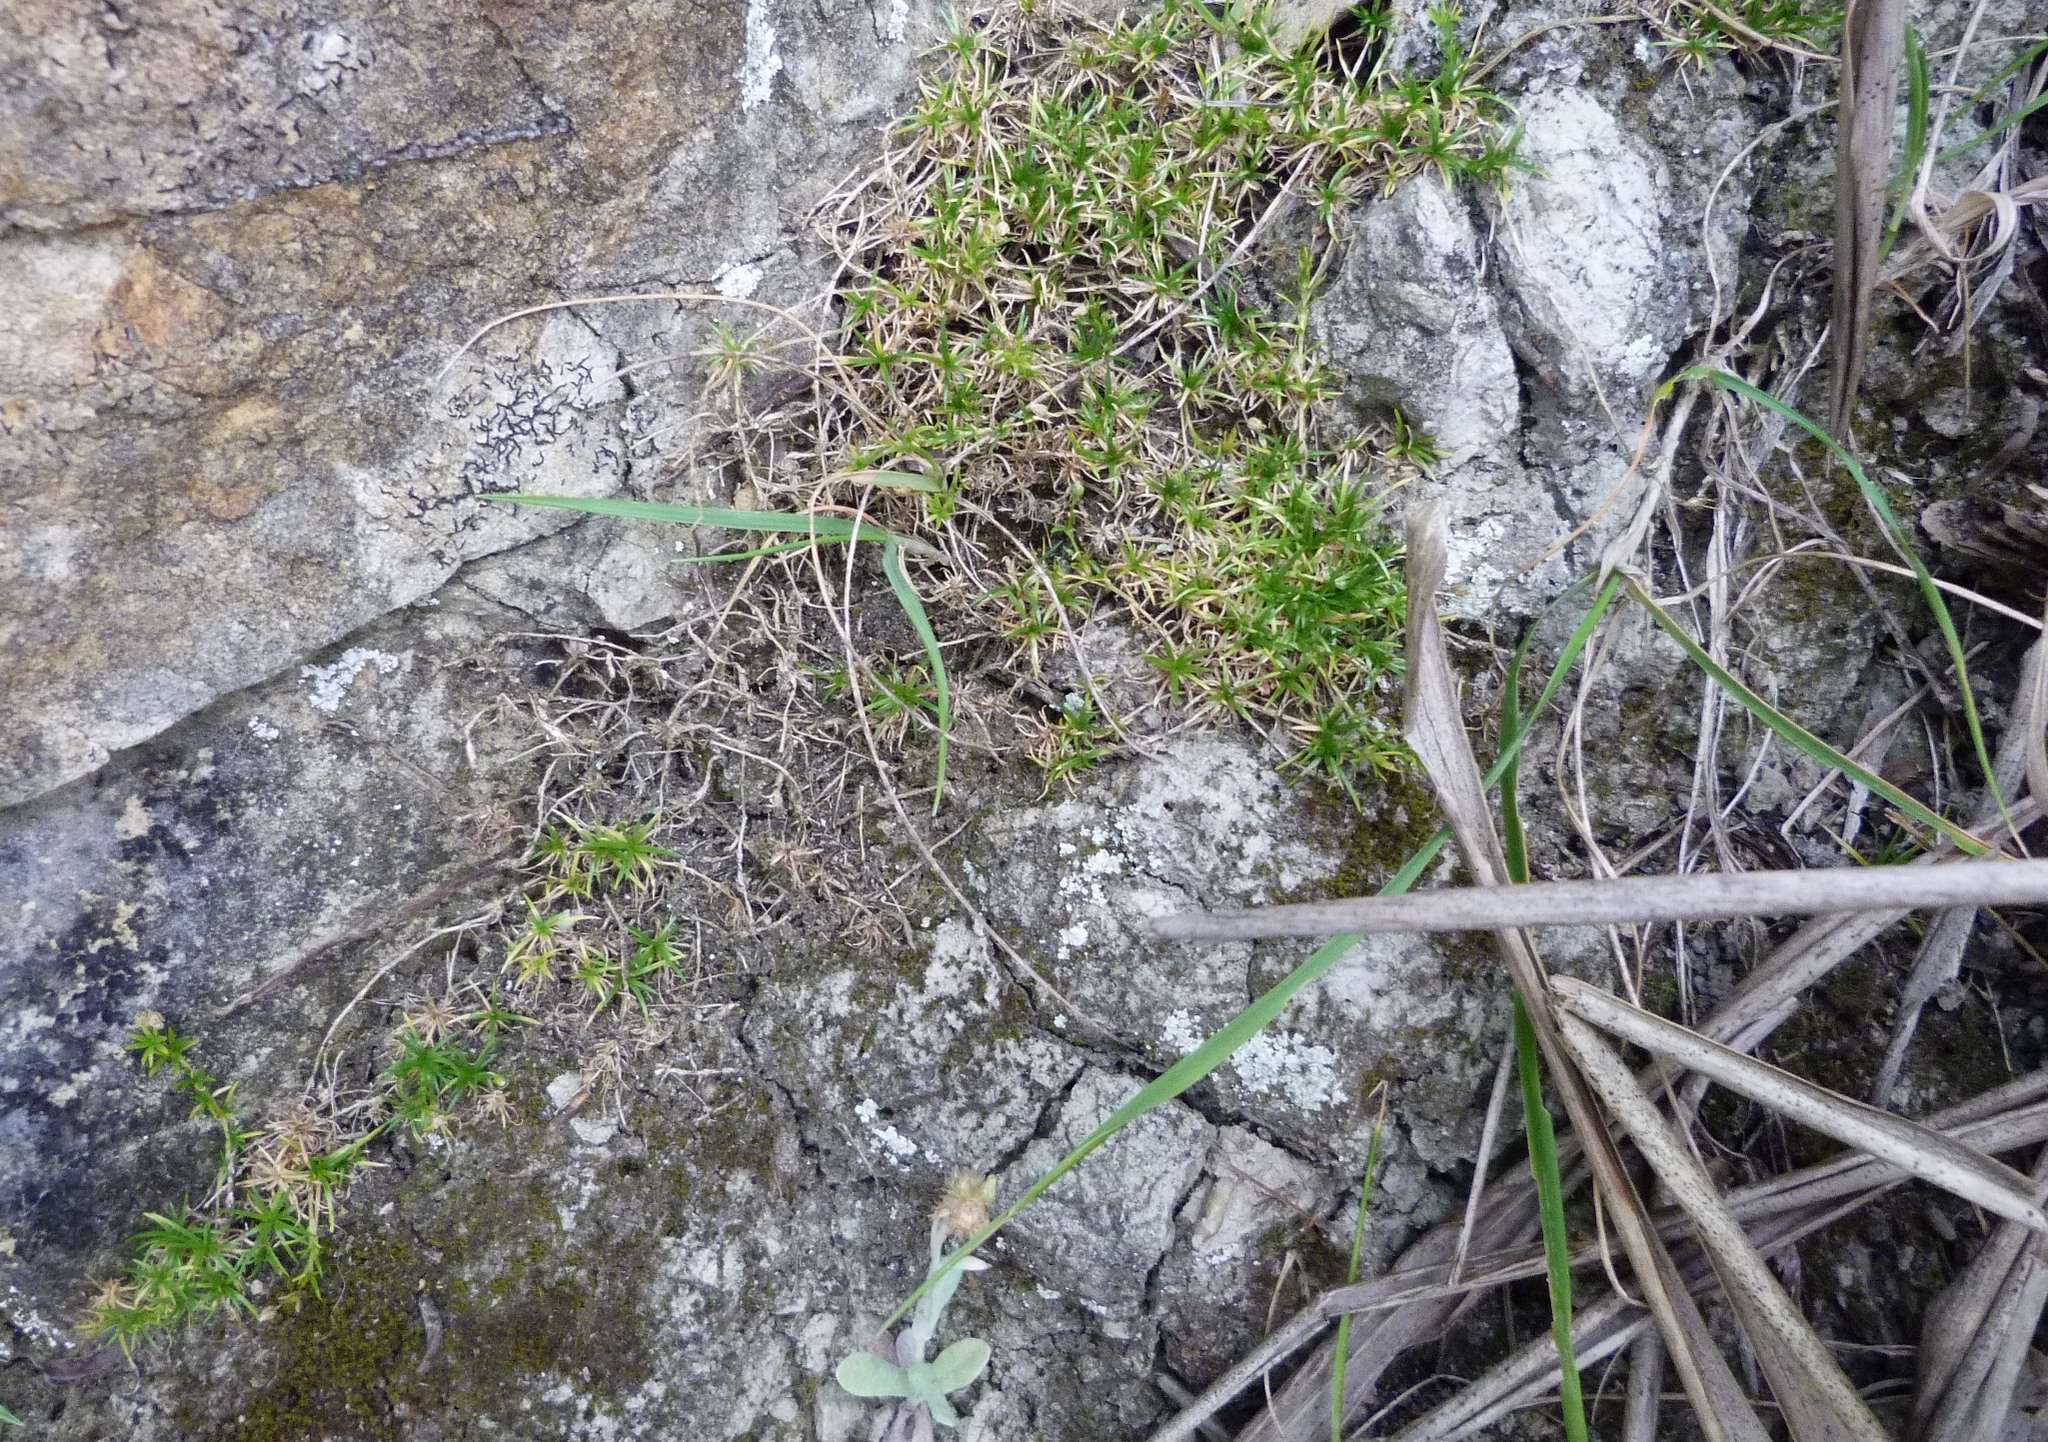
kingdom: Plantae
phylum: Tracheophyta
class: Magnoliopsida
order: Caryophyllales
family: Caryophyllaceae
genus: Sagina
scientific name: Sagina procumbens
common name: Procumbent pearlwort
